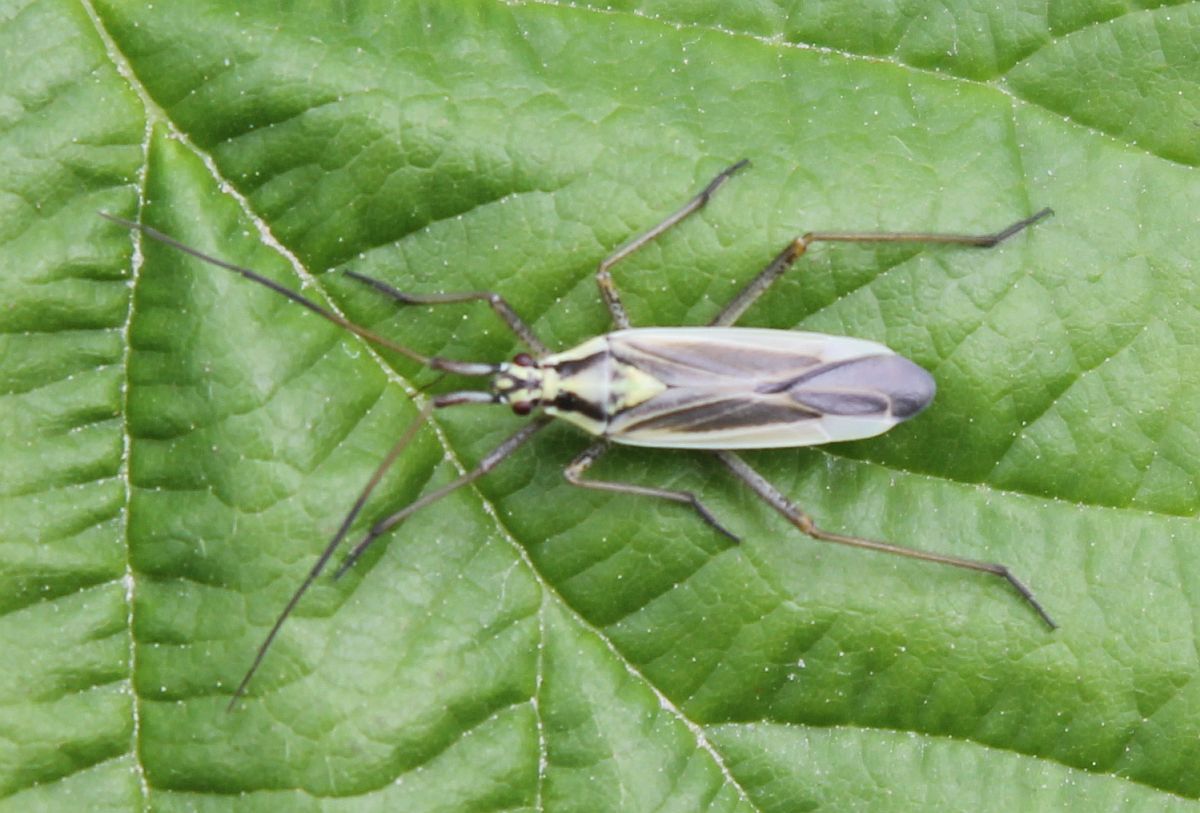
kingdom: Animalia
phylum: Arthropoda
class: Insecta
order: Hemiptera
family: Miridae
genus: Leptopterna
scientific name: Leptopterna dolabrata
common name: Meadow plant bug
